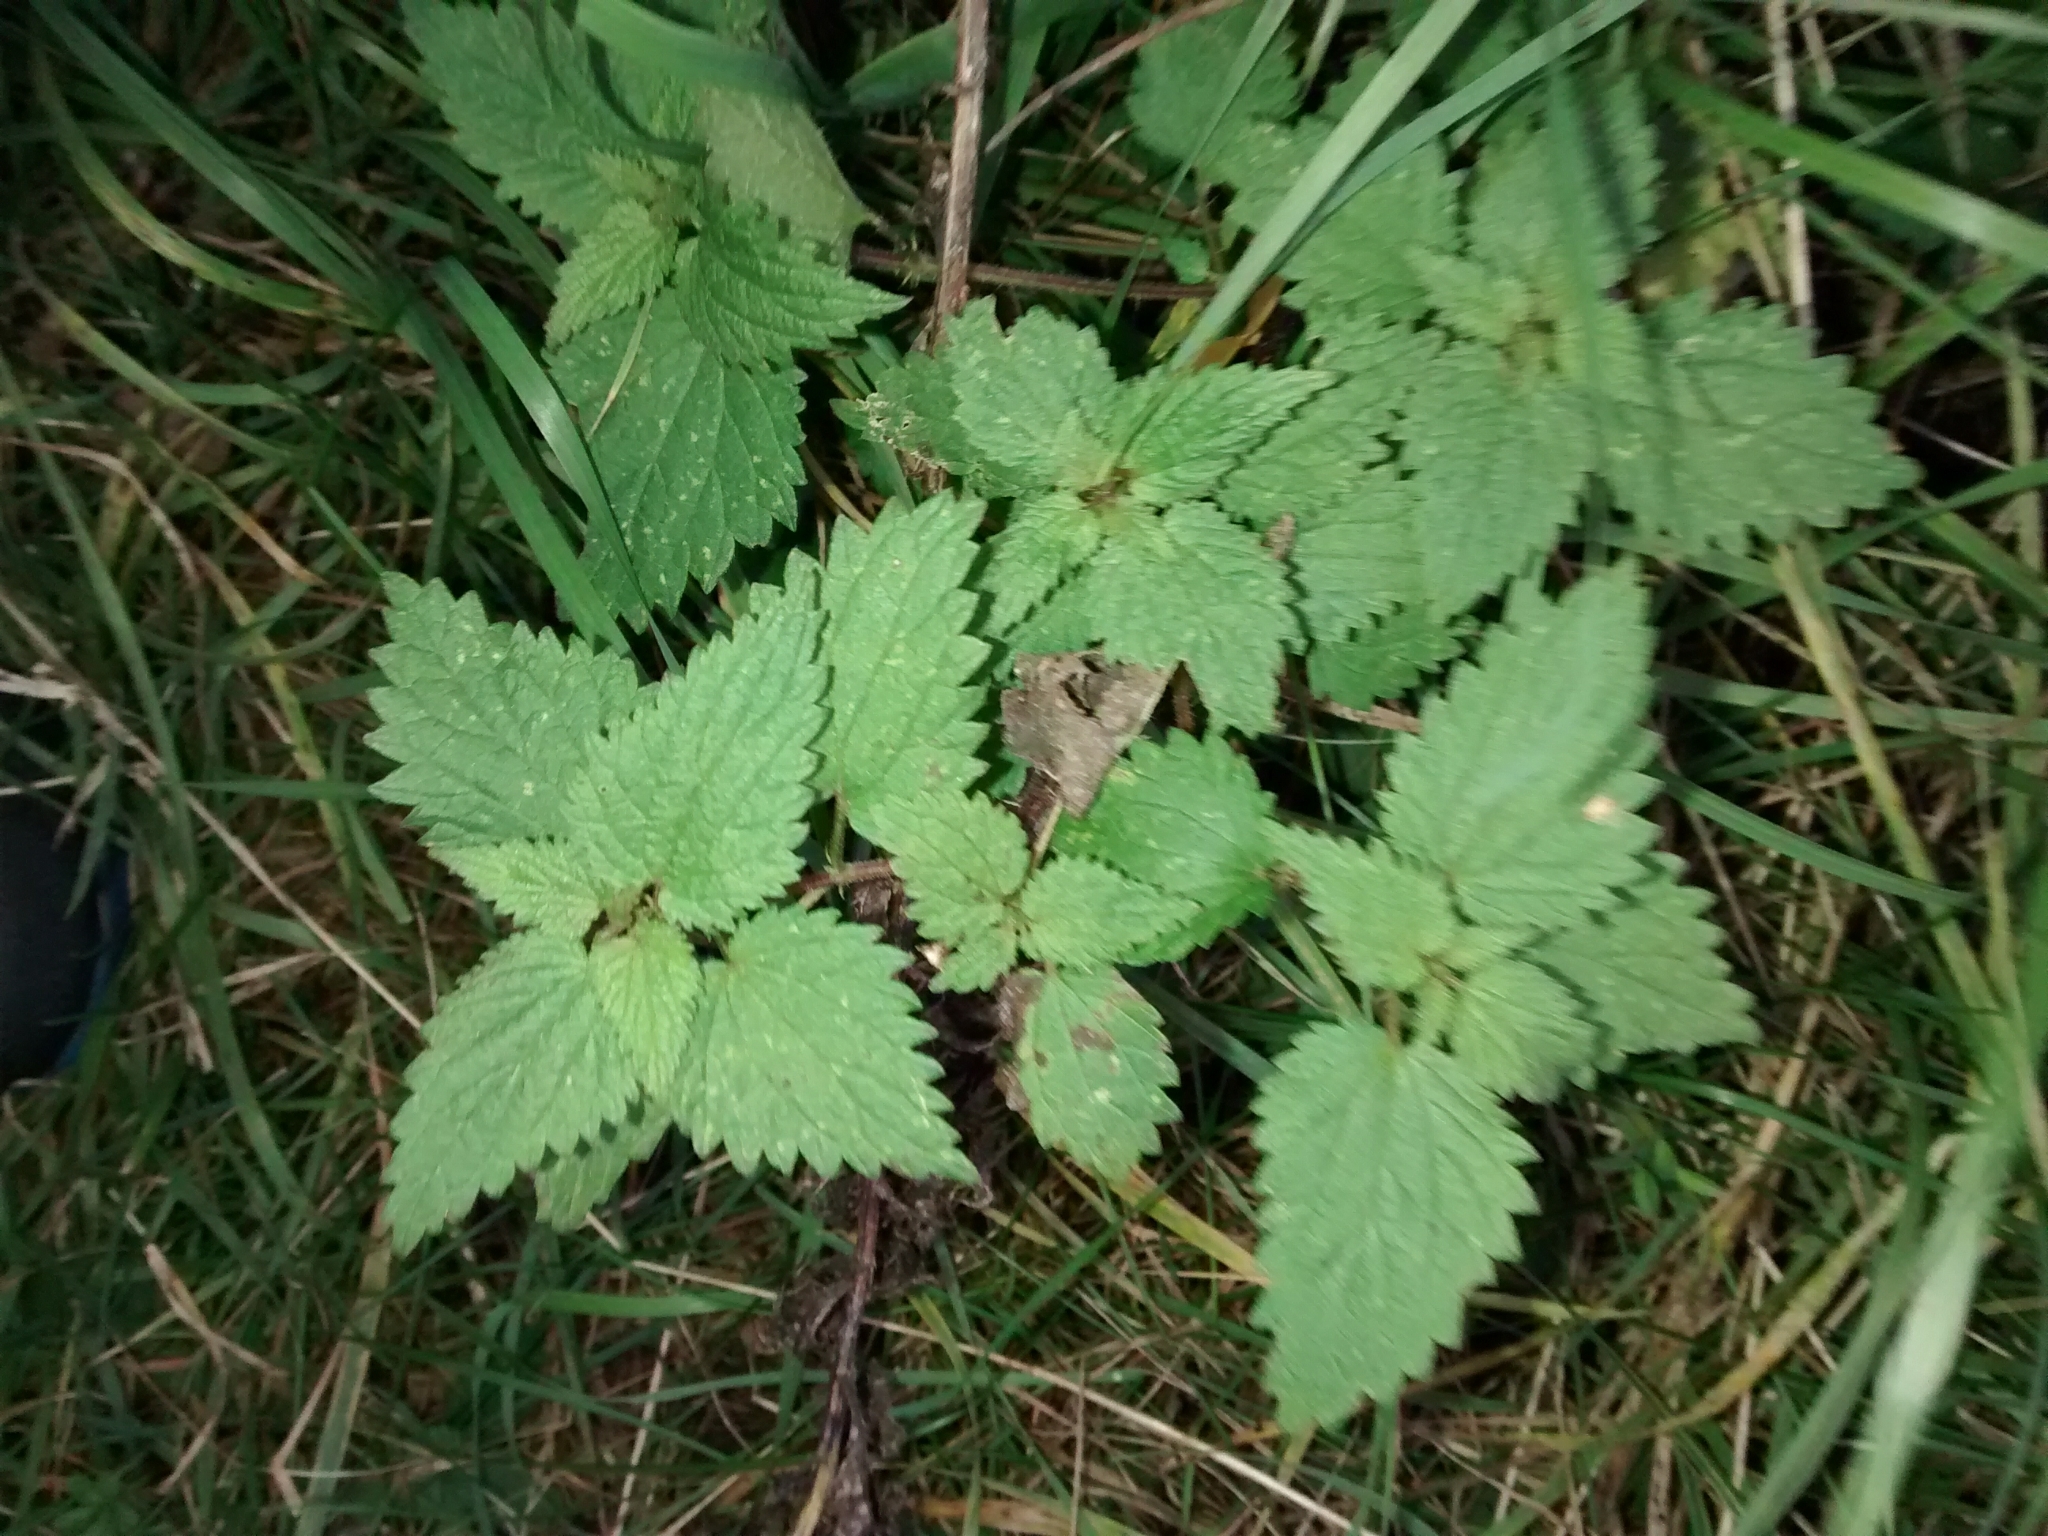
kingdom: Plantae
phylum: Tracheophyta
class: Magnoliopsida
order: Rosales
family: Urticaceae
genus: Urtica
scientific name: Urtica dioica
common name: Common nettle
